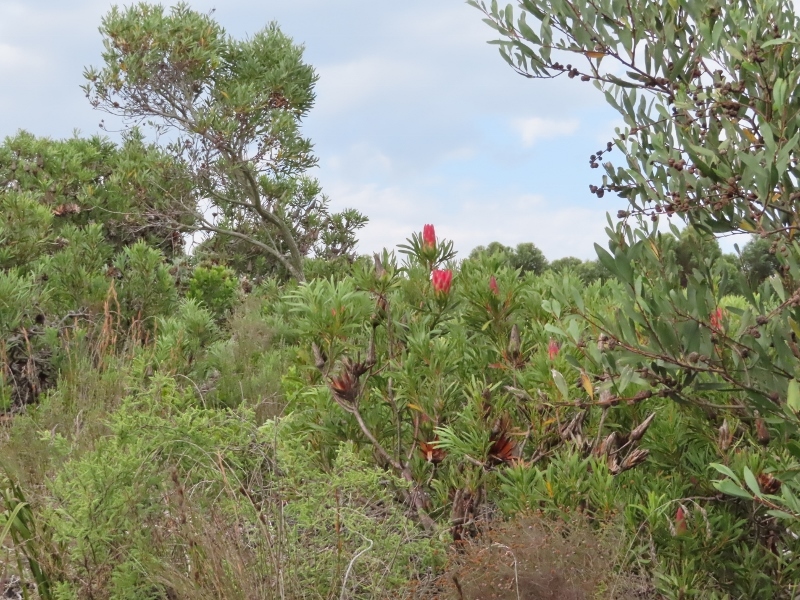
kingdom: Plantae
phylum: Tracheophyta
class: Magnoliopsida
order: Proteales
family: Proteaceae
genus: Protea
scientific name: Protea repens
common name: Sugarbush
